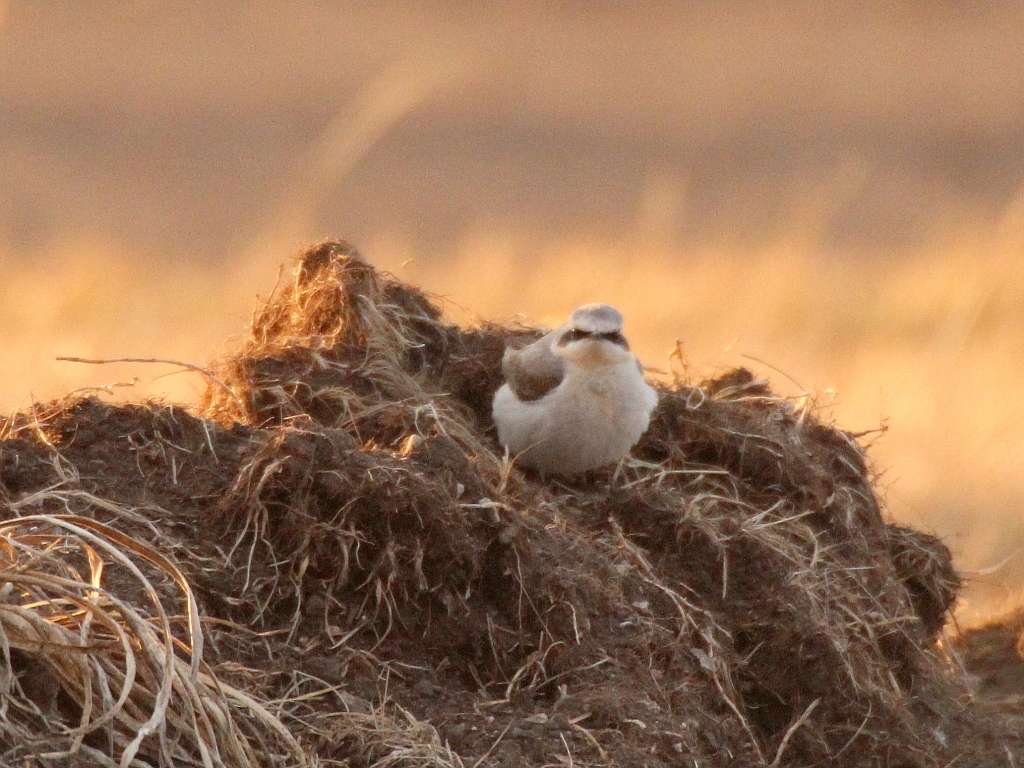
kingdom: Animalia
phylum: Chordata
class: Aves
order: Passeriformes
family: Muscicapidae
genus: Oenanthe
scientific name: Oenanthe oenanthe
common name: Northern wheatear
